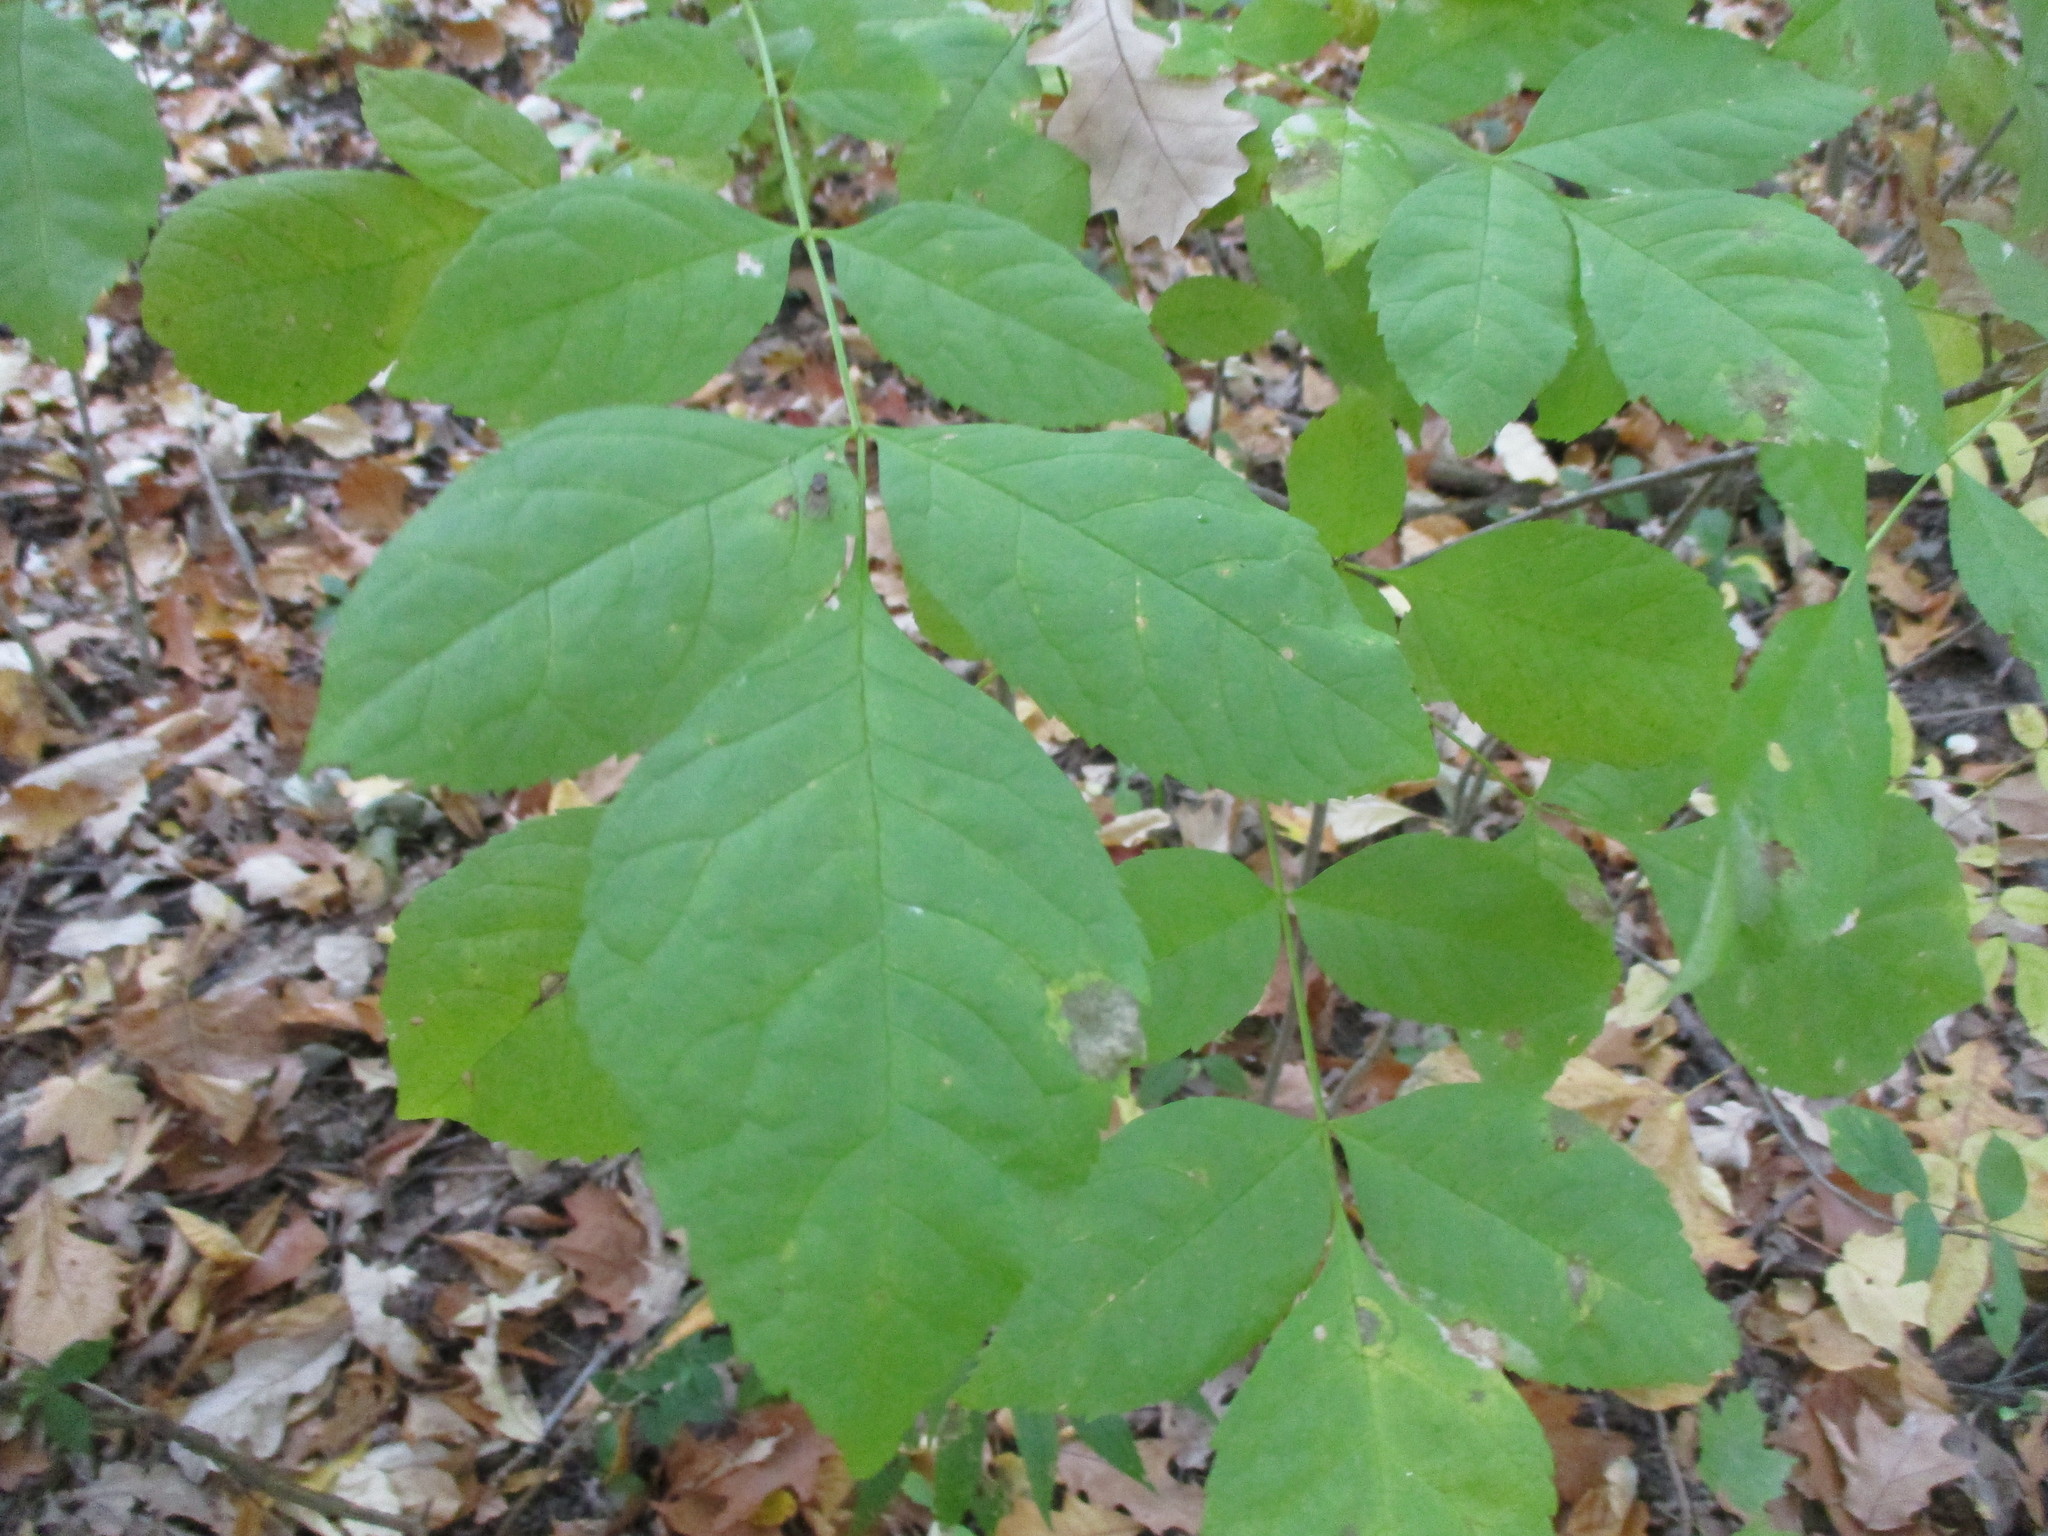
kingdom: Plantae
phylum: Tracheophyta
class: Magnoliopsida
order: Lamiales
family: Oleaceae
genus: Fraxinus
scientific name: Fraxinus pennsylvanica
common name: Green ash
